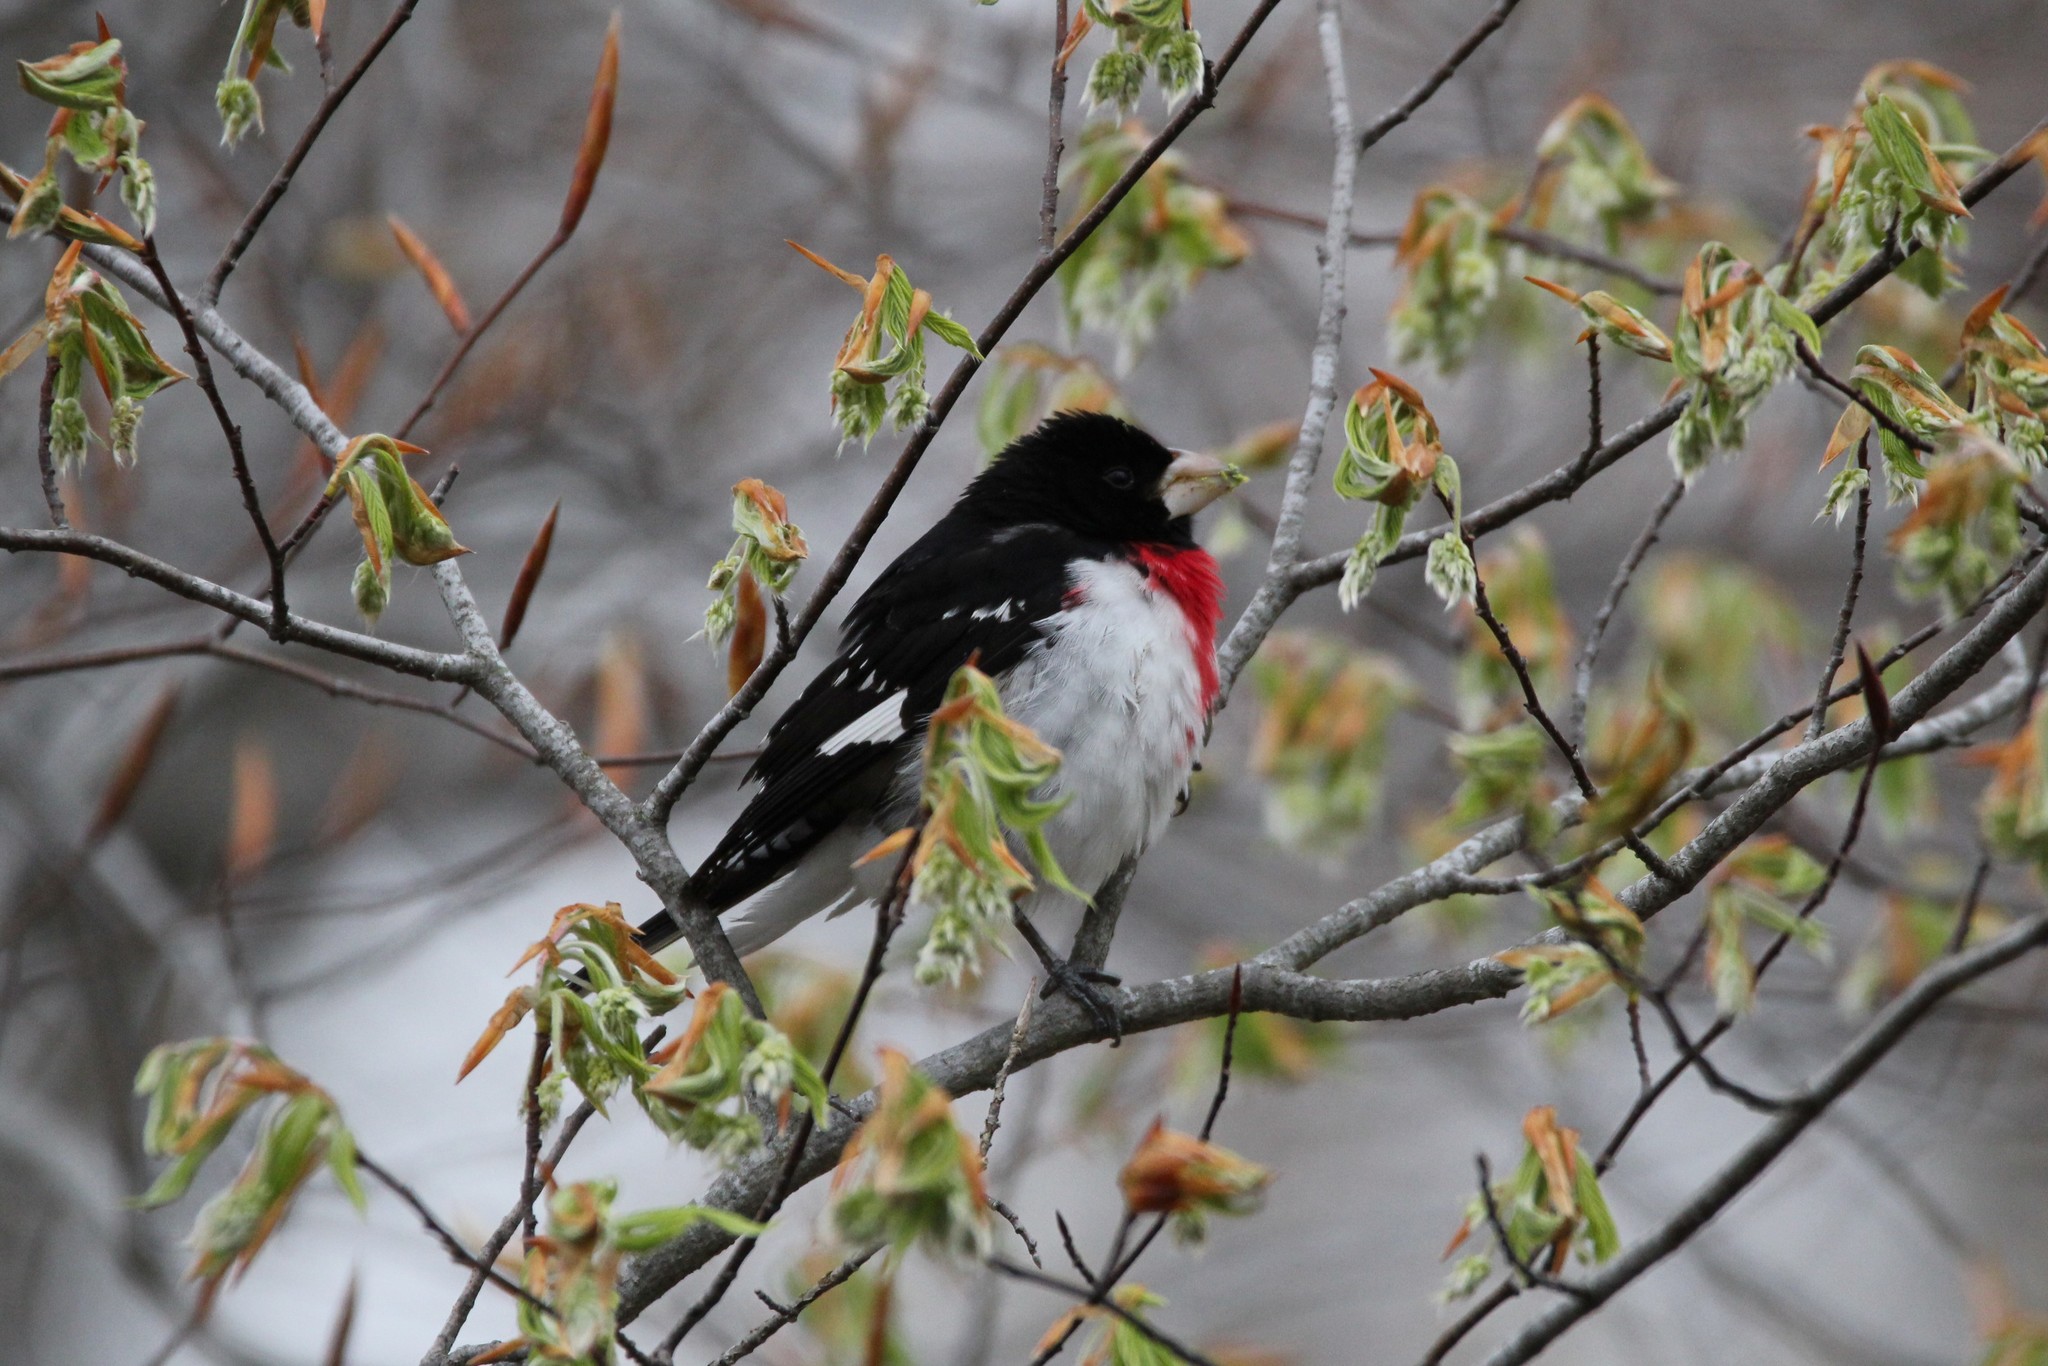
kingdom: Animalia
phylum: Chordata
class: Aves
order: Passeriformes
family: Cardinalidae
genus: Pheucticus
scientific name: Pheucticus ludovicianus
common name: Rose-breasted grosbeak
